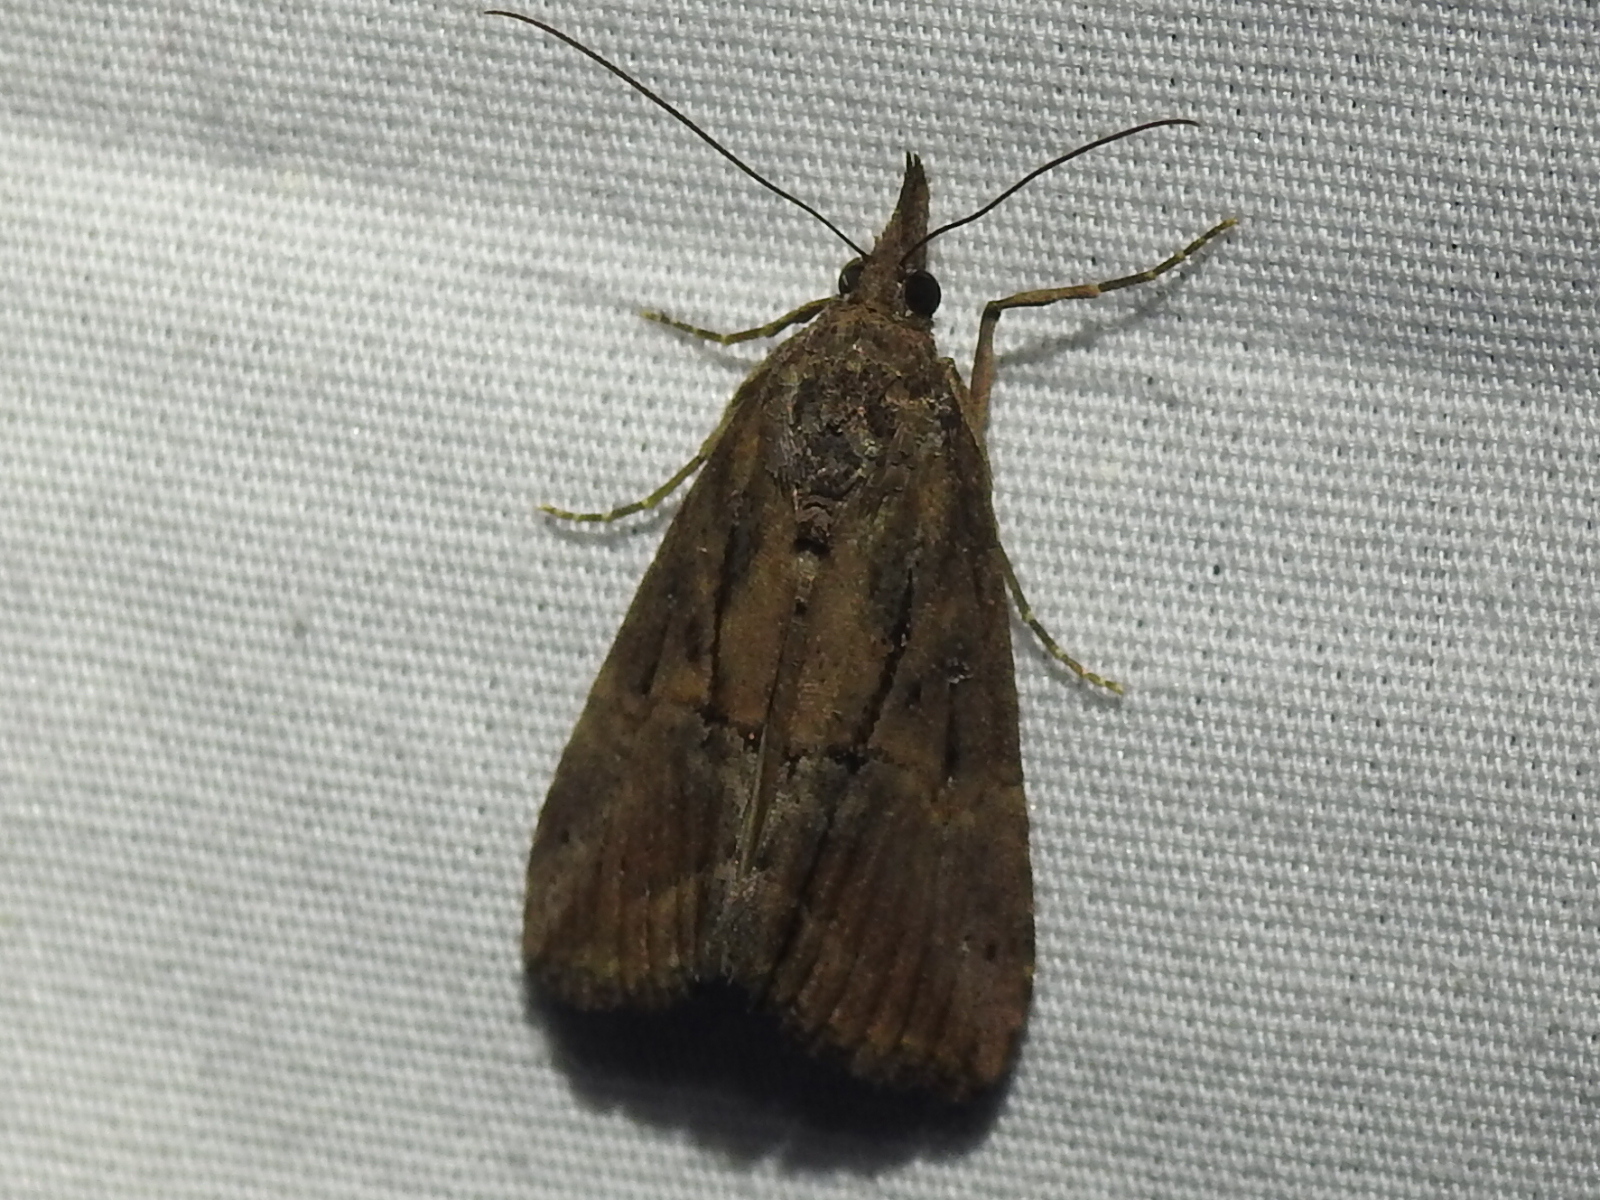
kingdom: Animalia
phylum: Arthropoda
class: Insecta
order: Lepidoptera
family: Erebidae
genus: Hypena
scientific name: Hypena scabra
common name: Green cloverworm
